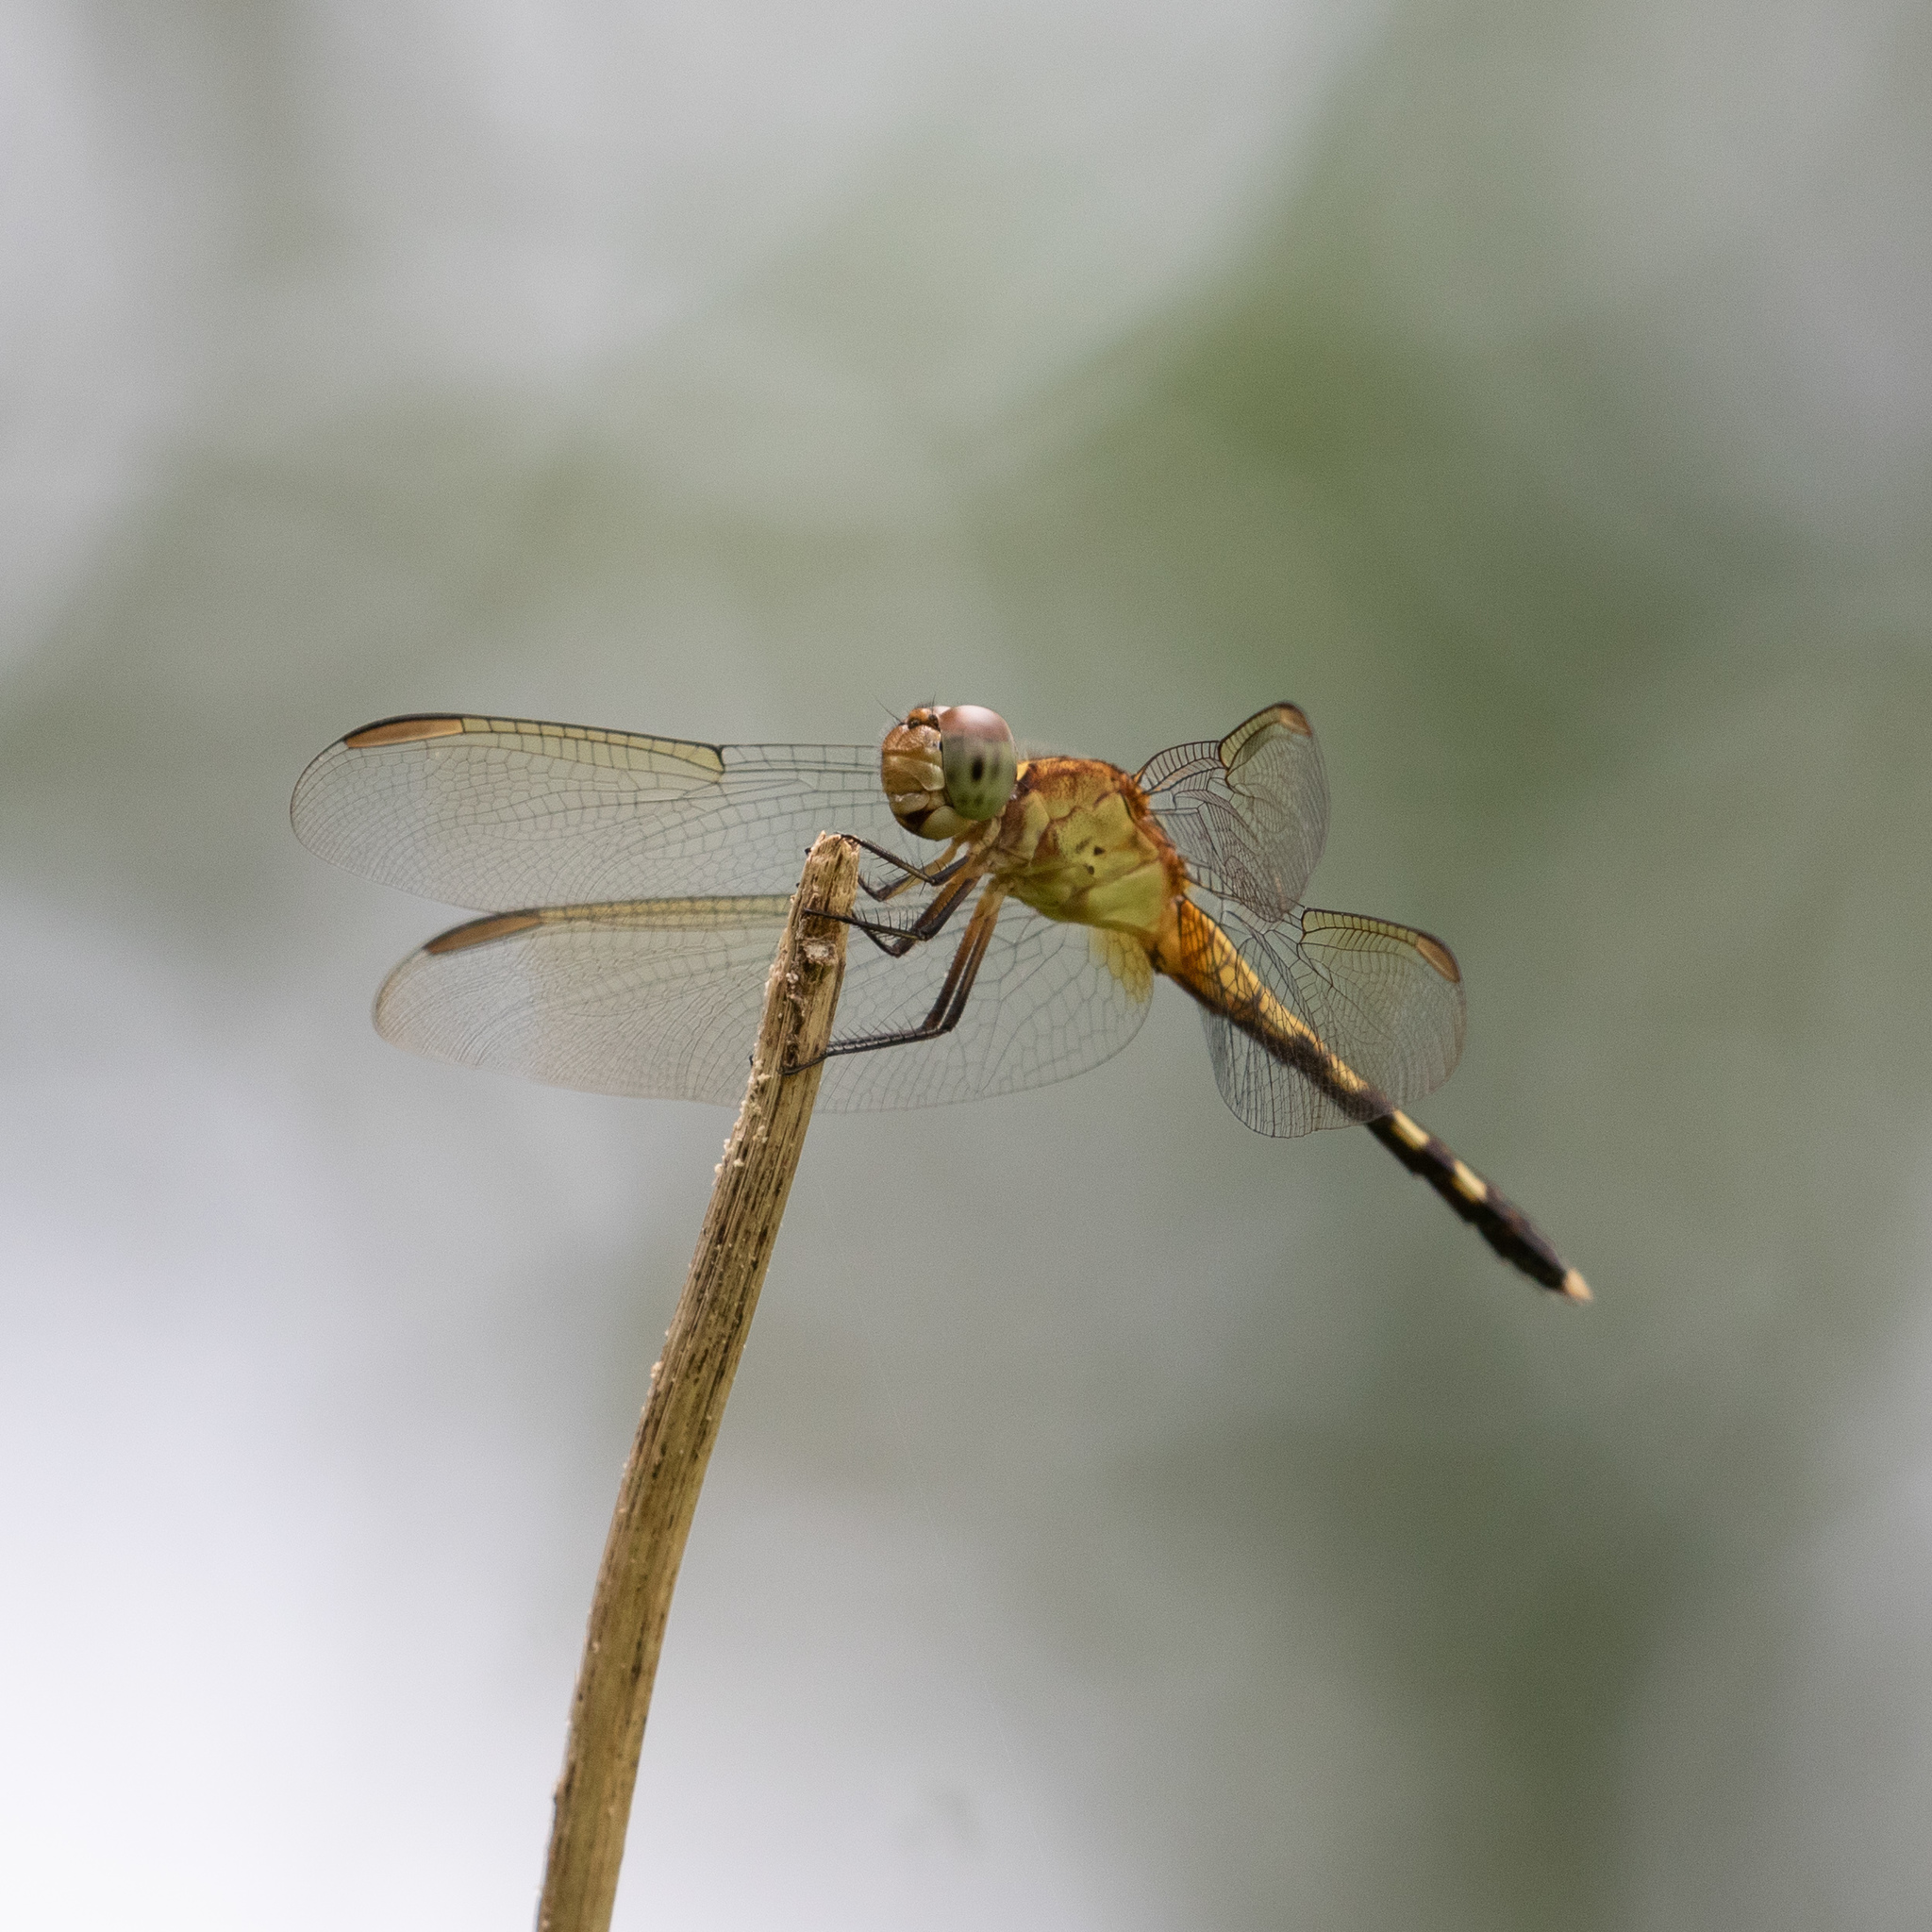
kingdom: Animalia
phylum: Arthropoda
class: Insecta
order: Odonata
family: Libellulidae
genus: Erythrodiplax
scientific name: Erythrodiplax umbrata
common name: Band-winged dragonlet
